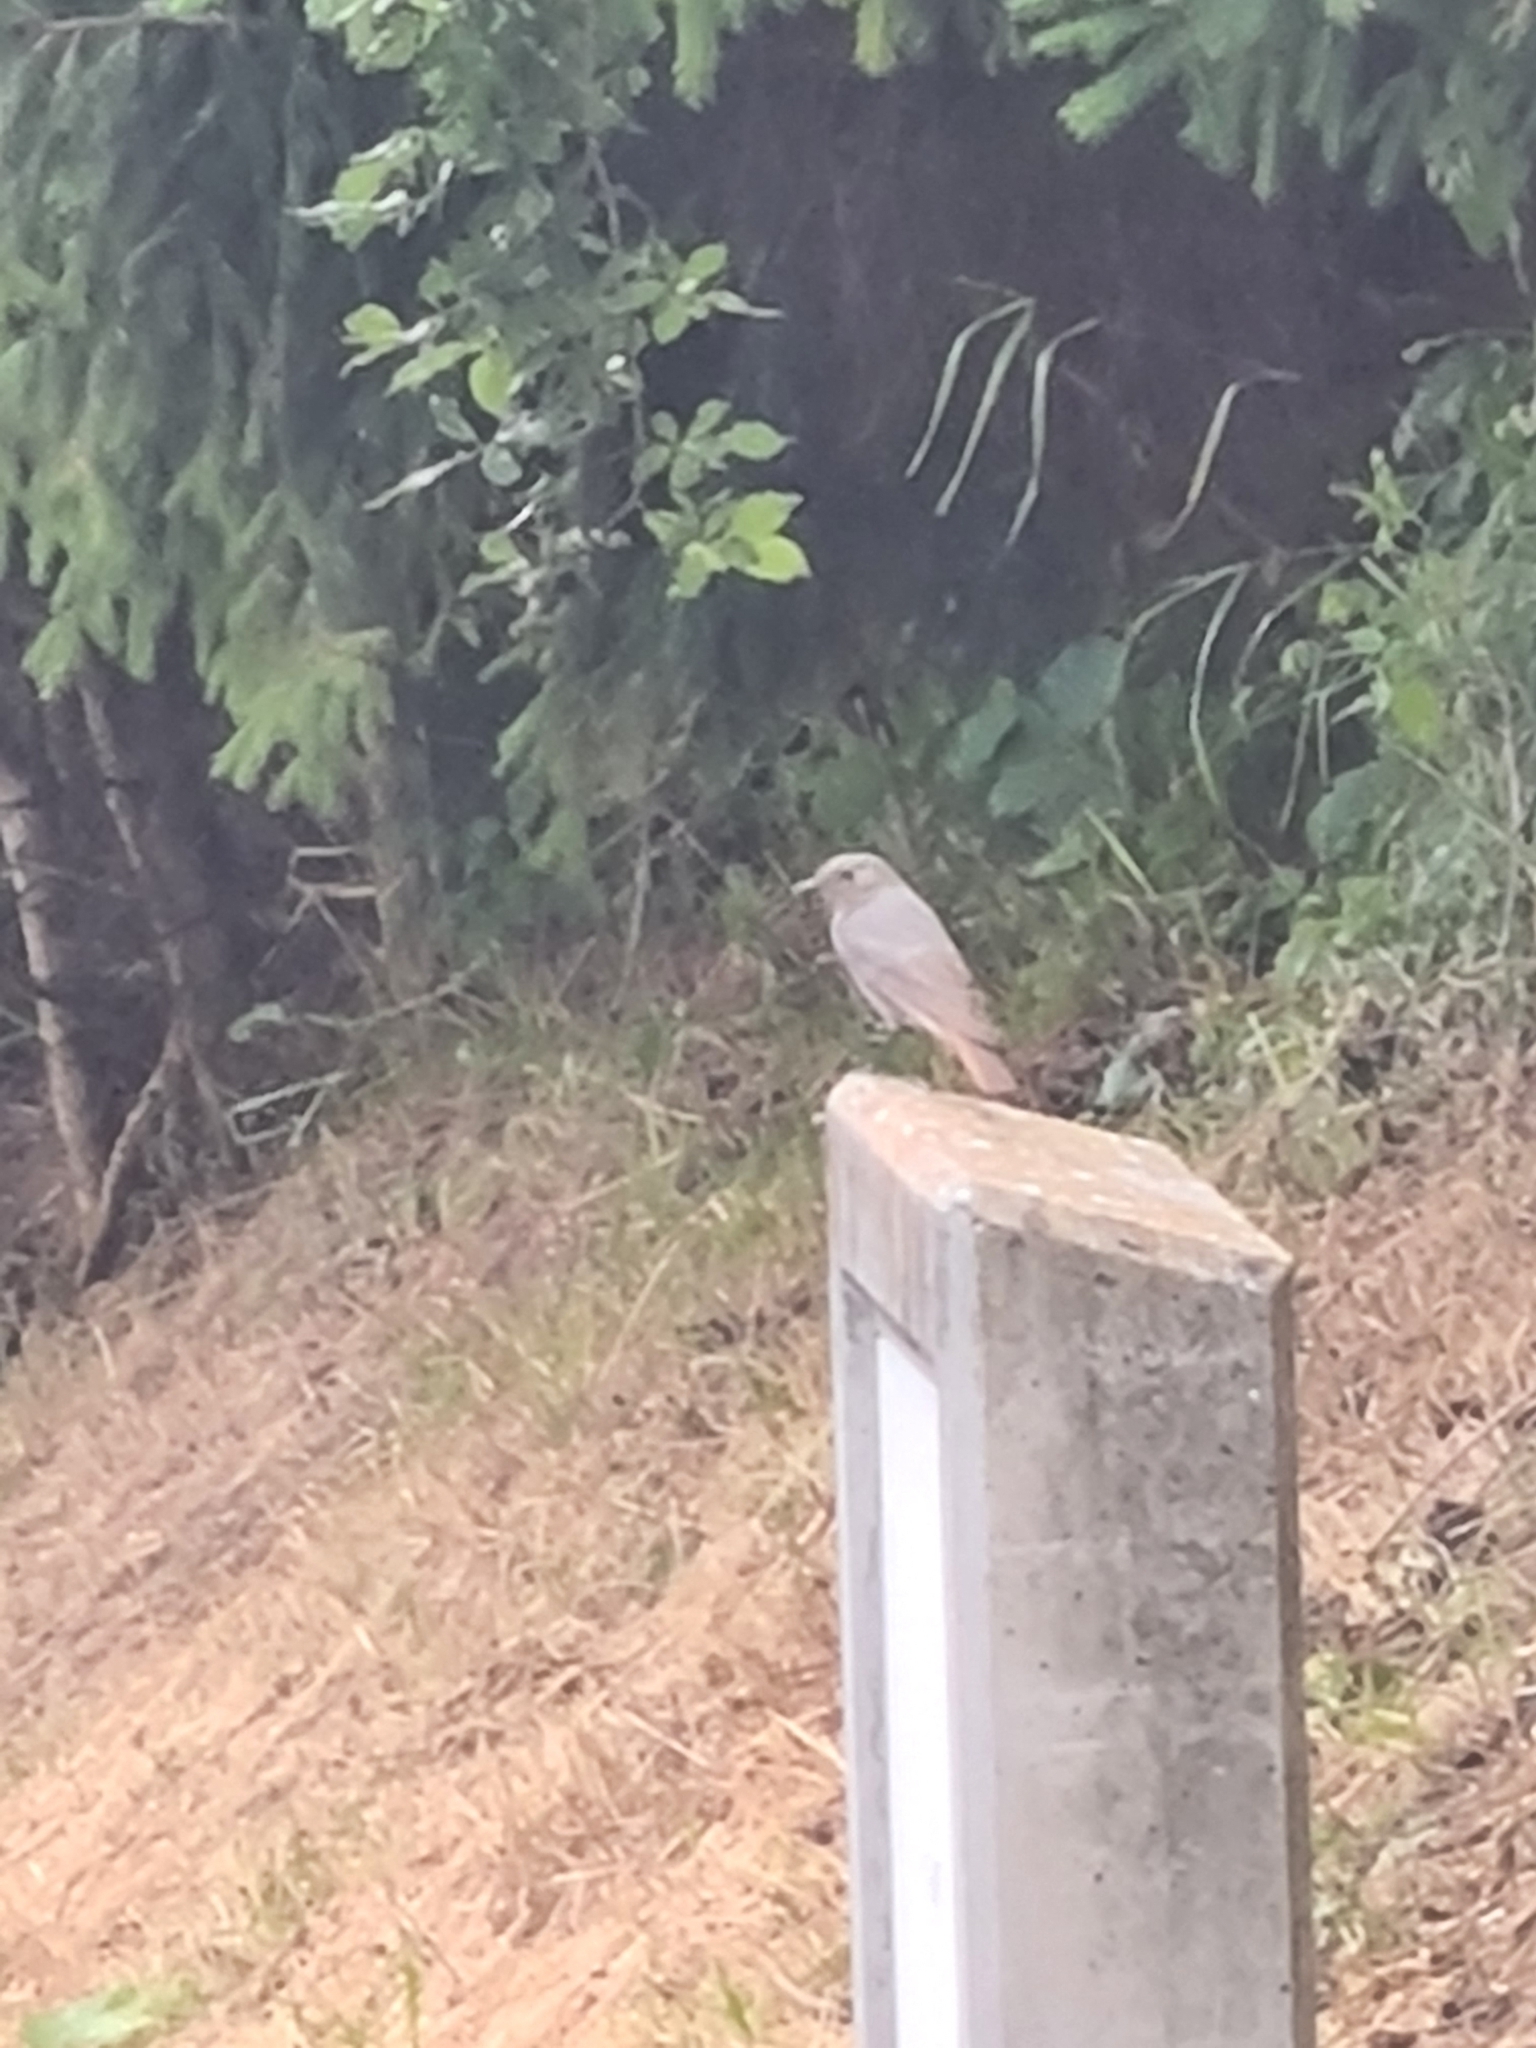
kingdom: Animalia
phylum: Chordata
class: Aves
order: Passeriformes
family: Muscicapidae
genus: Phoenicurus
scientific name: Phoenicurus ochruros
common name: Black redstart
